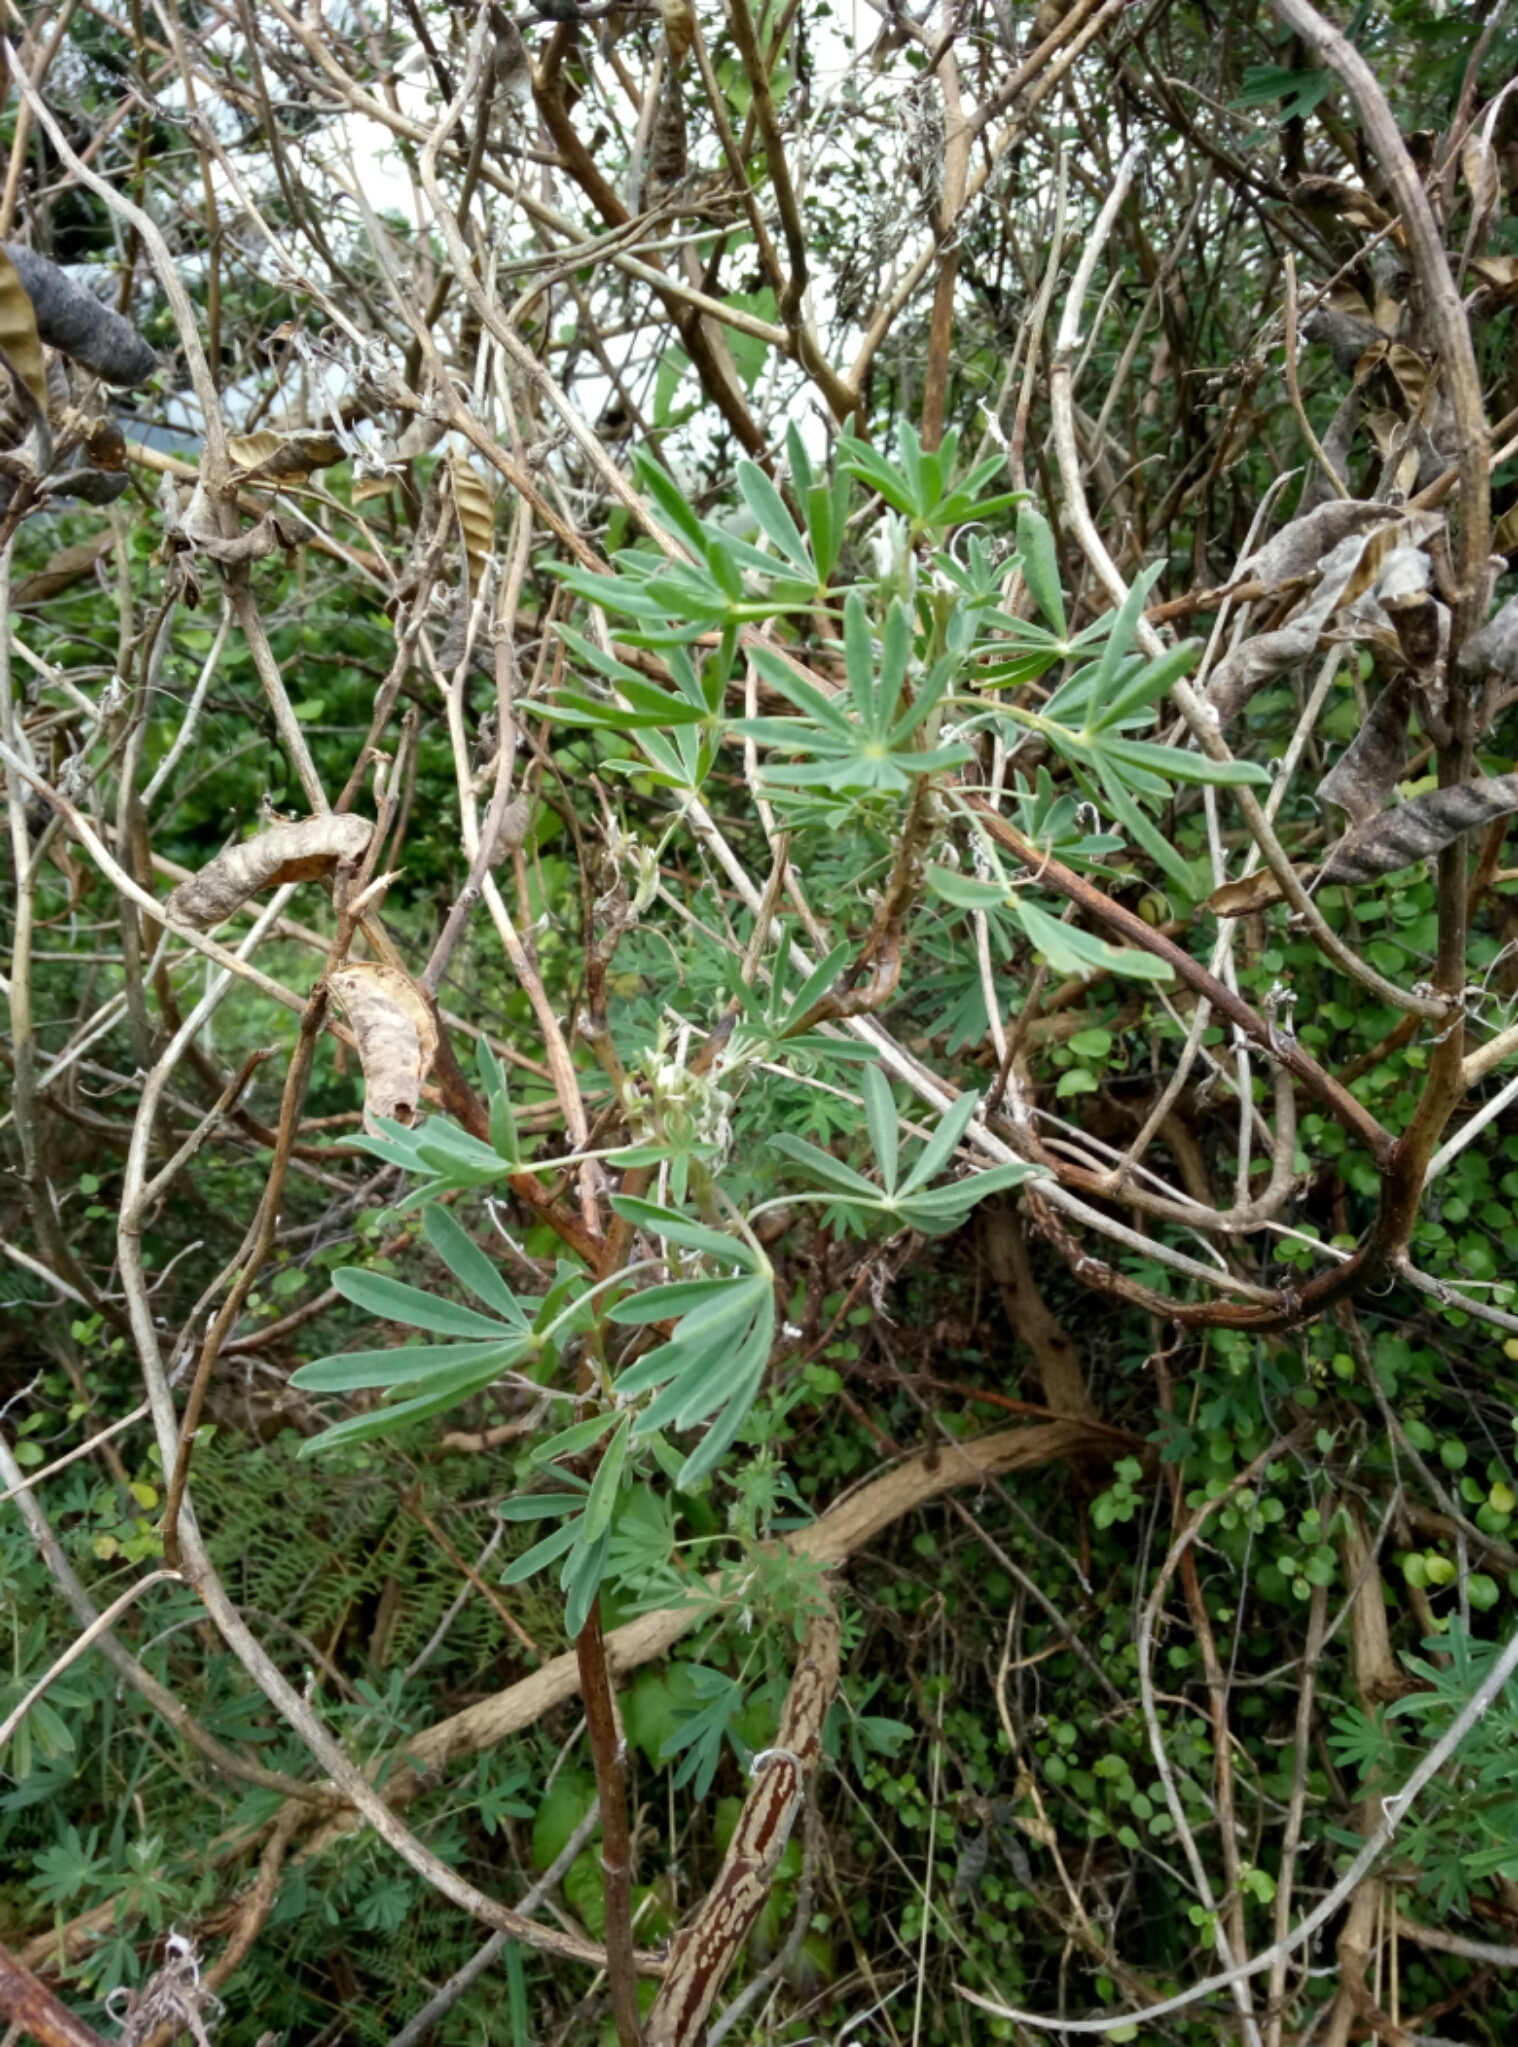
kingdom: Plantae
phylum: Tracheophyta
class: Magnoliopsida
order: Fabales
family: Fabaceae
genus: Lupinus
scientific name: Lupinus arboreus
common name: Yellow bush lupine
